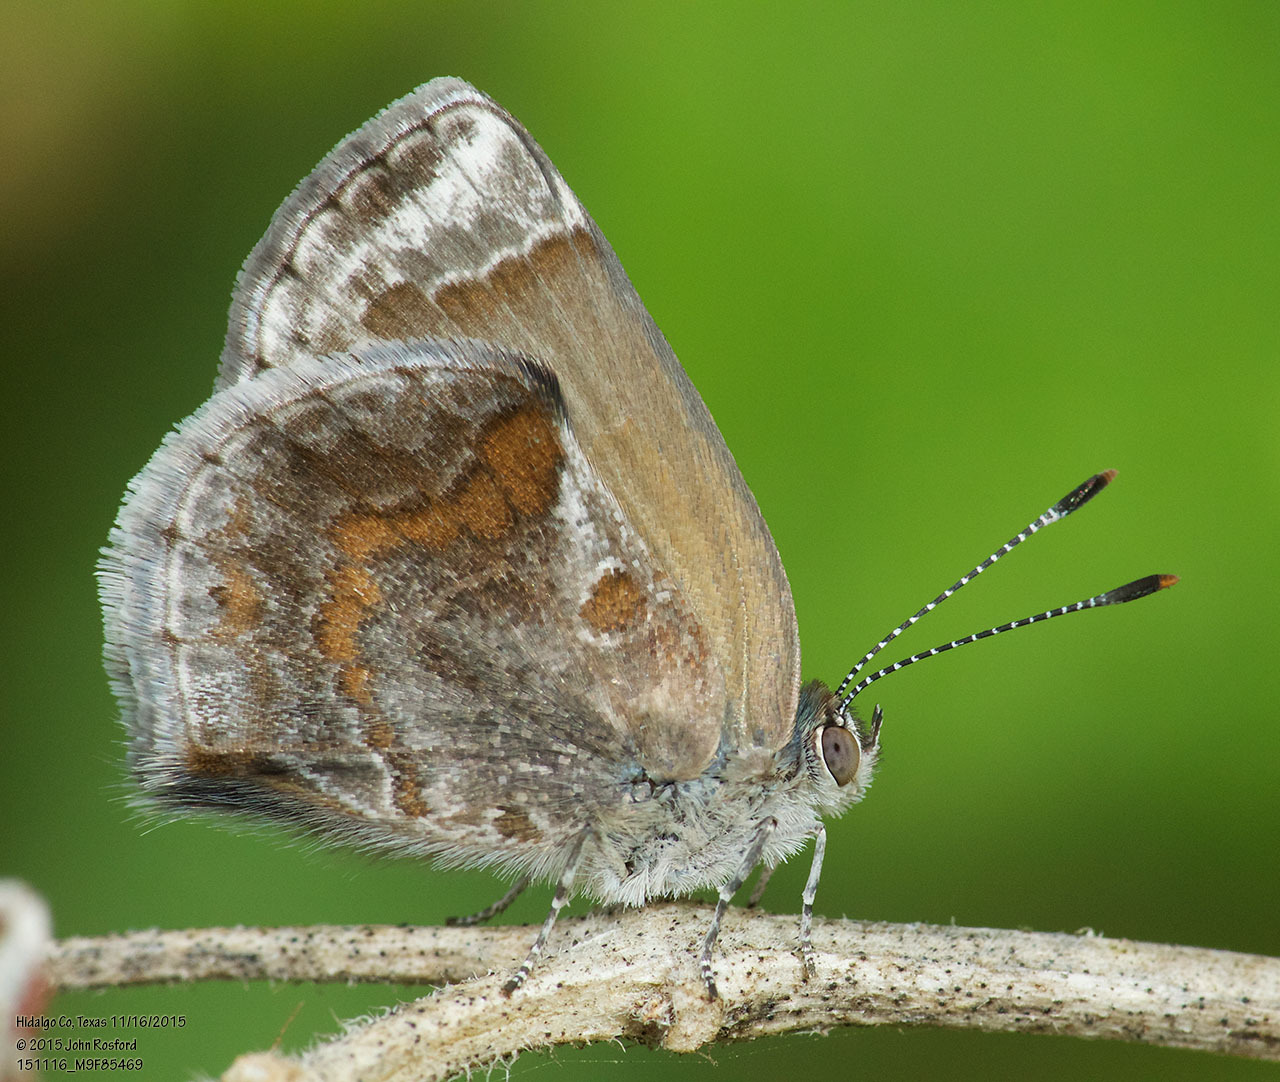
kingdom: Animalia
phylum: Arthropoda
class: Insecta
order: Lepidoptera
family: Lycaenidae
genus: Strymon
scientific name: Strymon bazochii
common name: Lantana scrub-hairstreak
